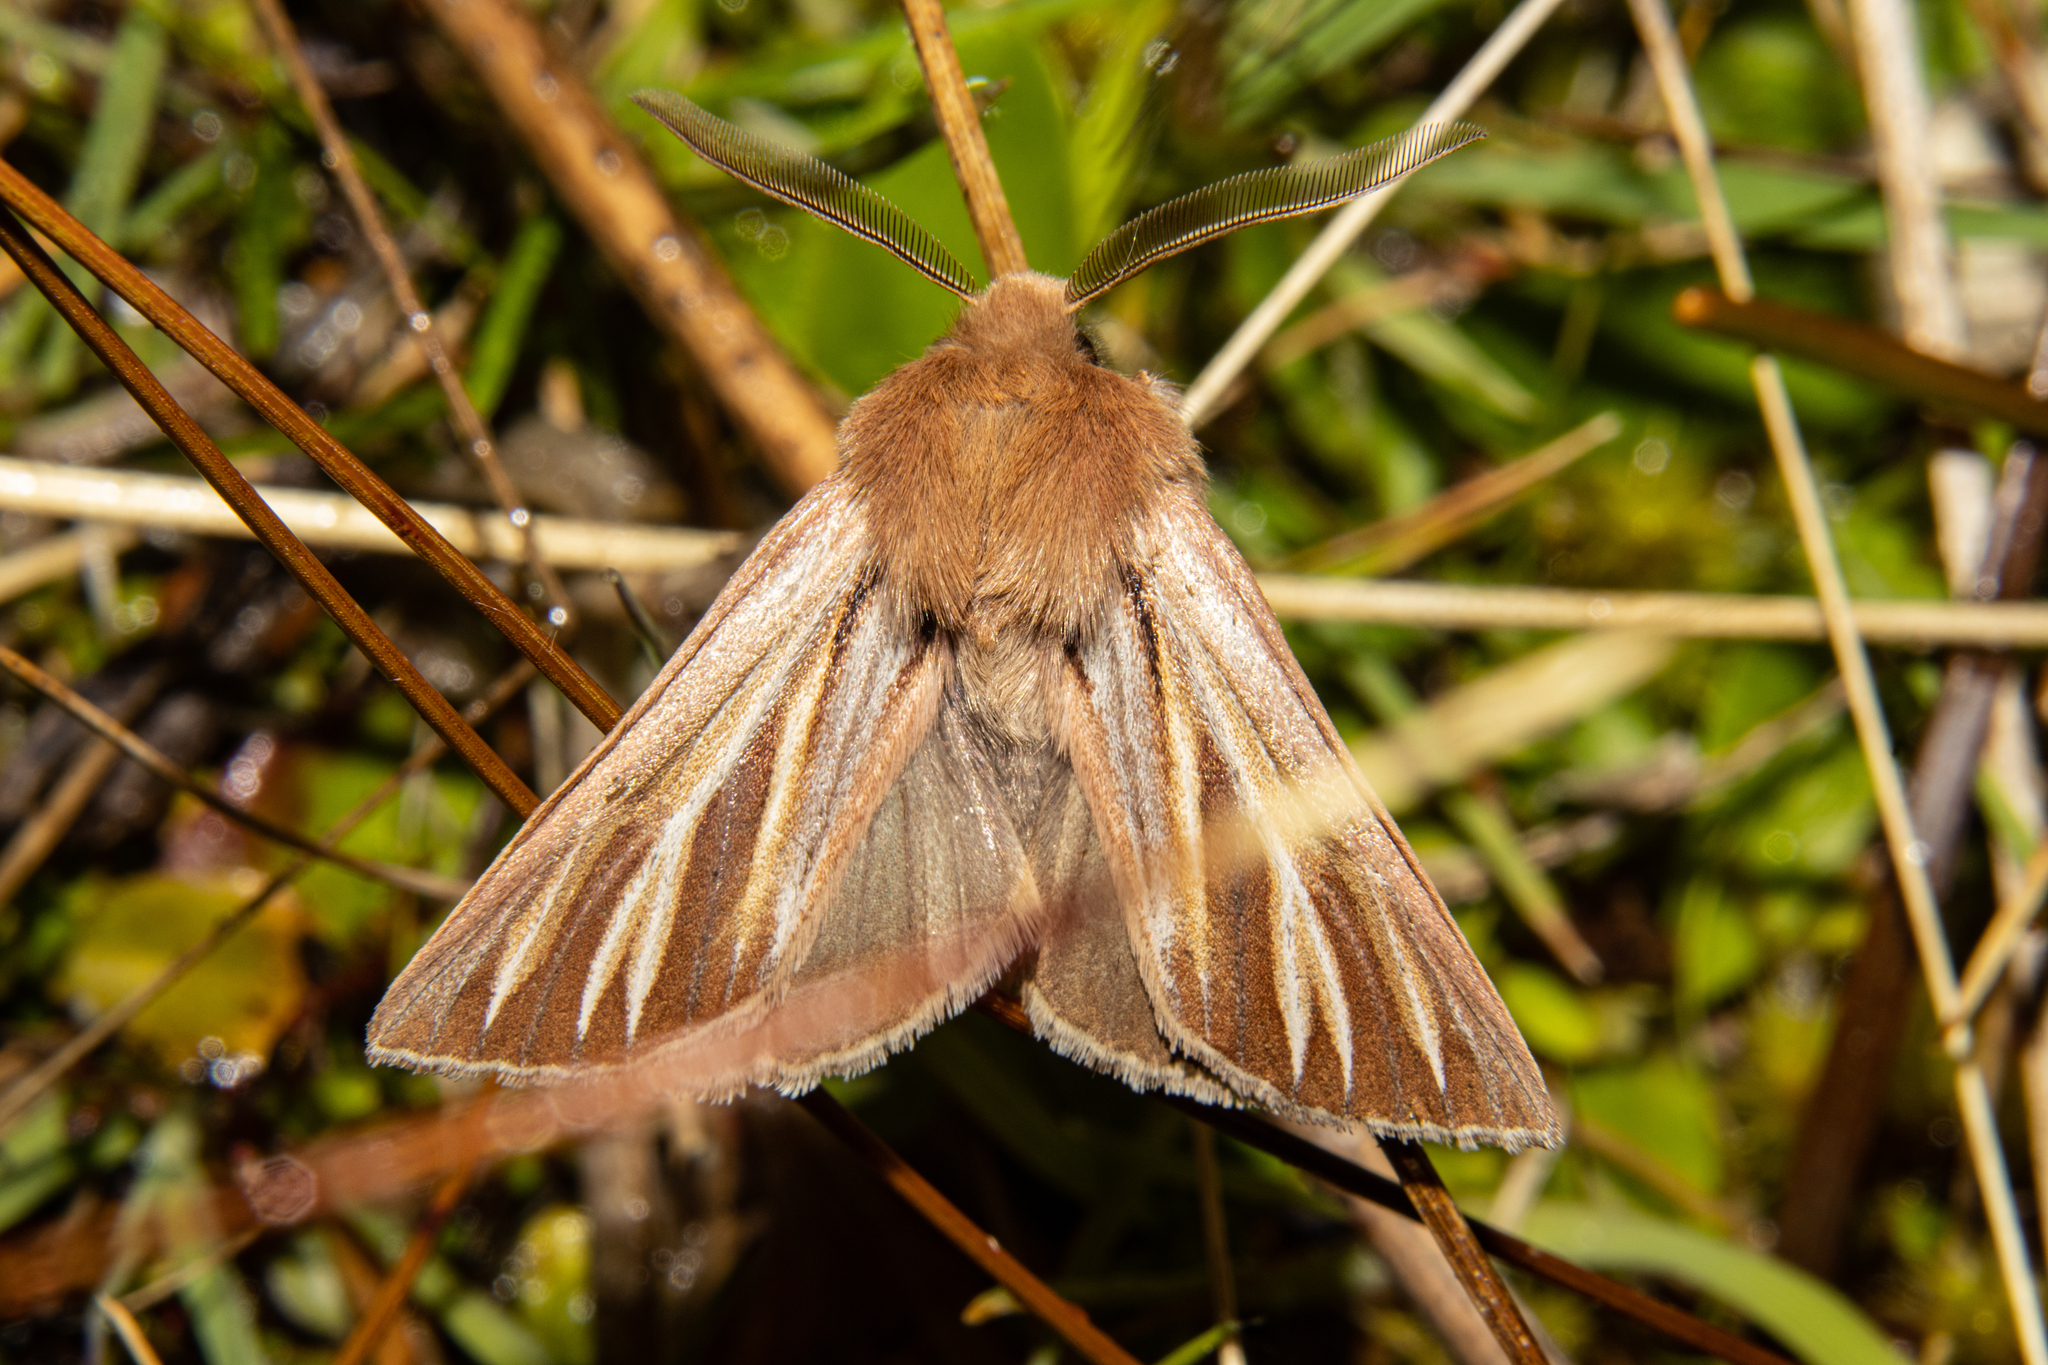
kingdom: Animalia
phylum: Arthropoda
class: Insecta
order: Lepidoptera
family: Noctuidae
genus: Ichneutica
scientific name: Ichneutica caraunias
